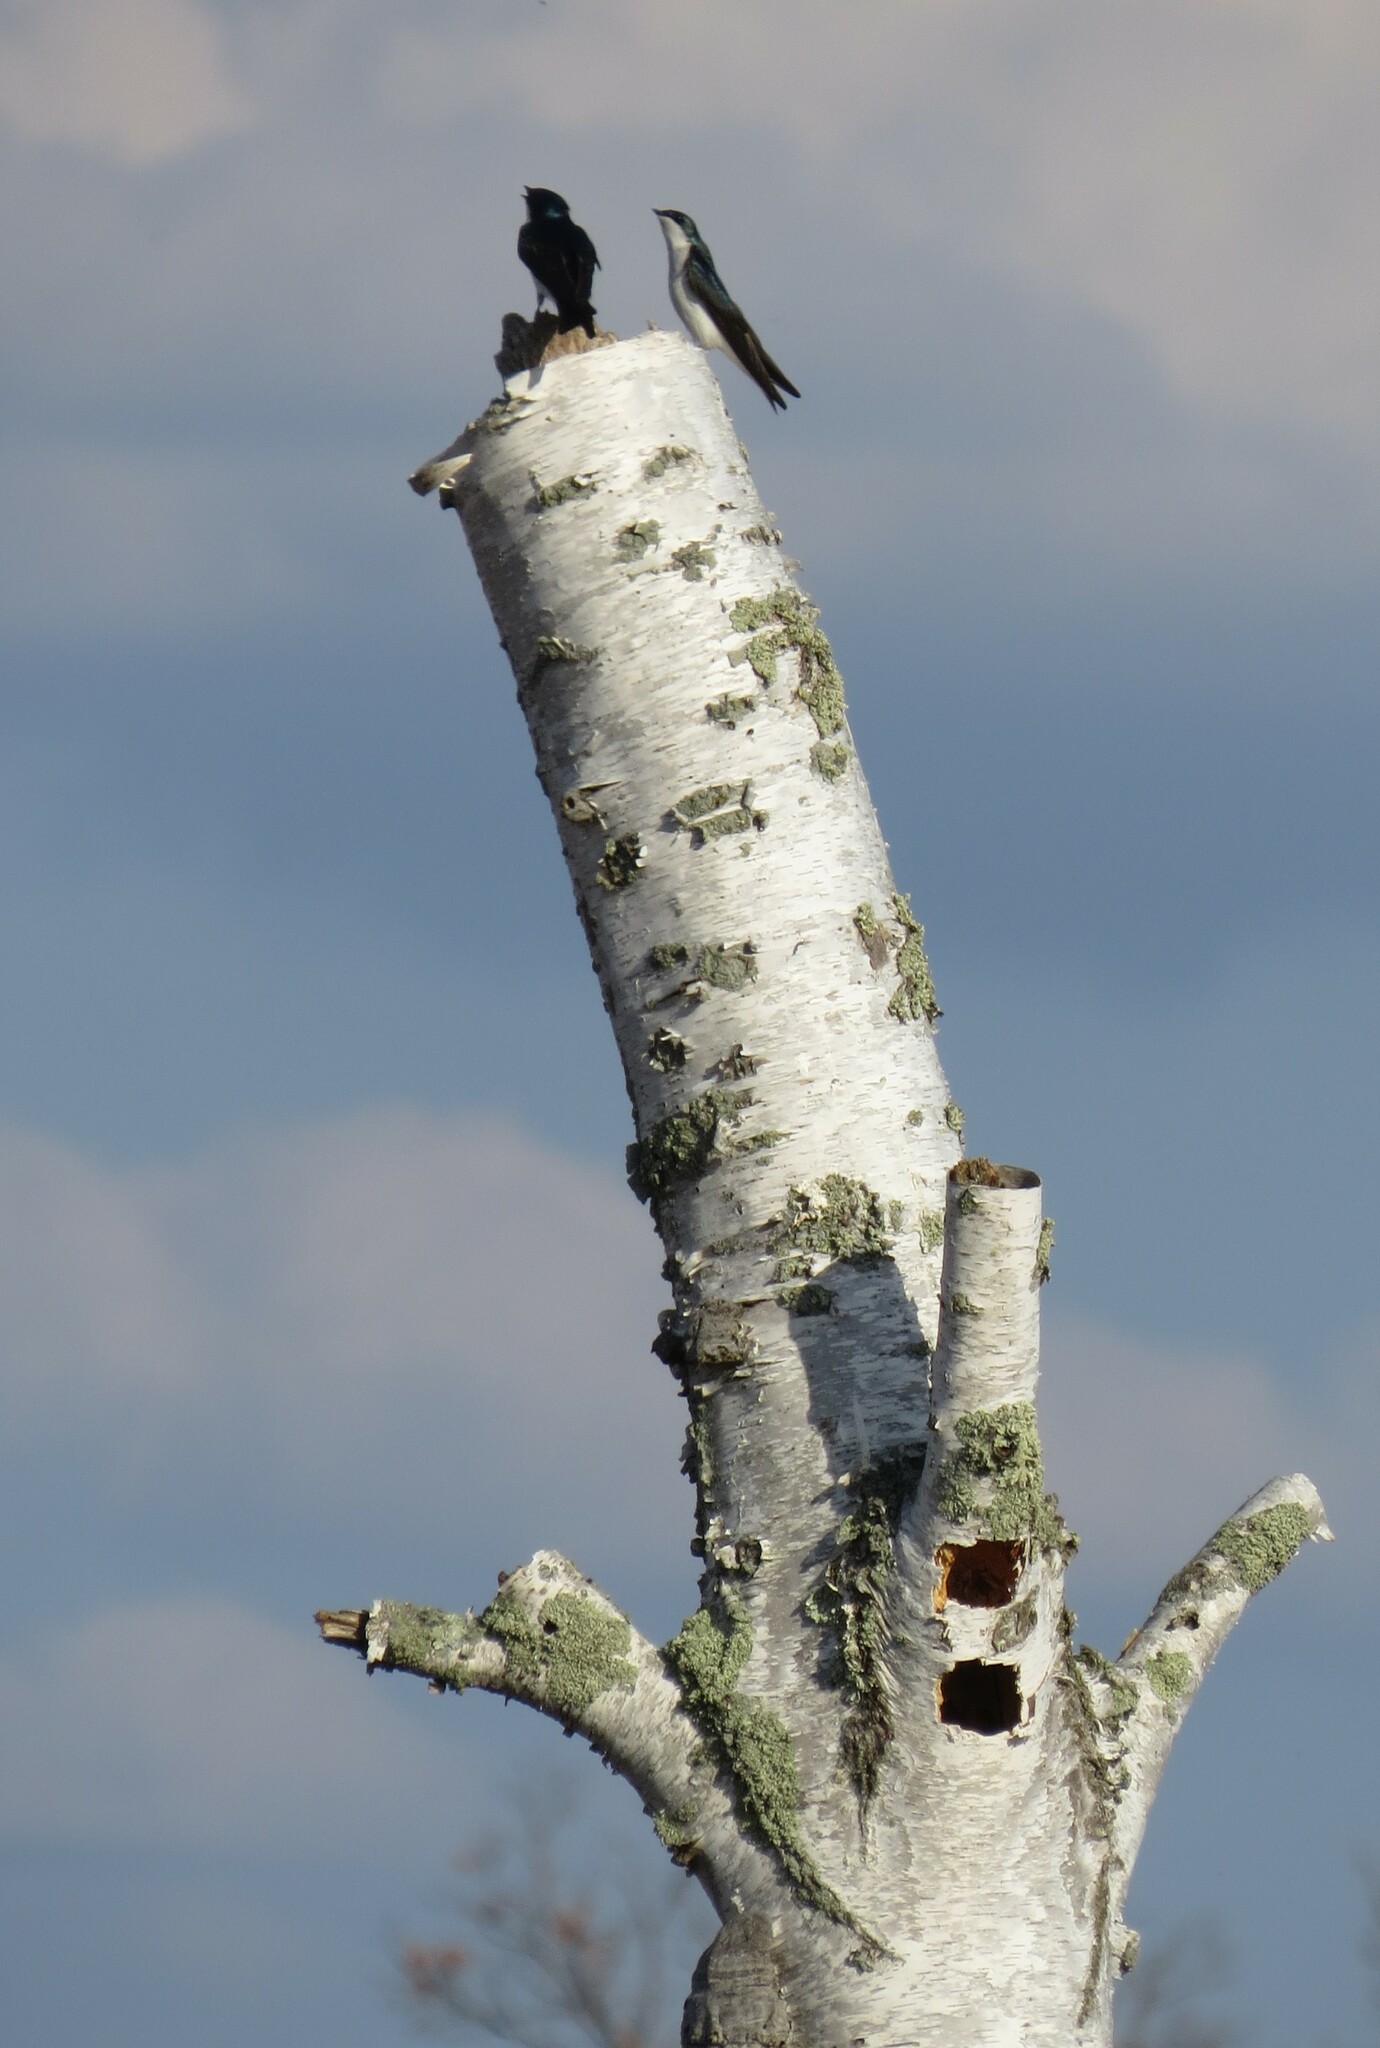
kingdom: Animalia
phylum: Chordata
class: Aves
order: Passeriformes
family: Hirundinidae
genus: Tachycineta
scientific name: Tachycineta bicolor
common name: Tree swallow
